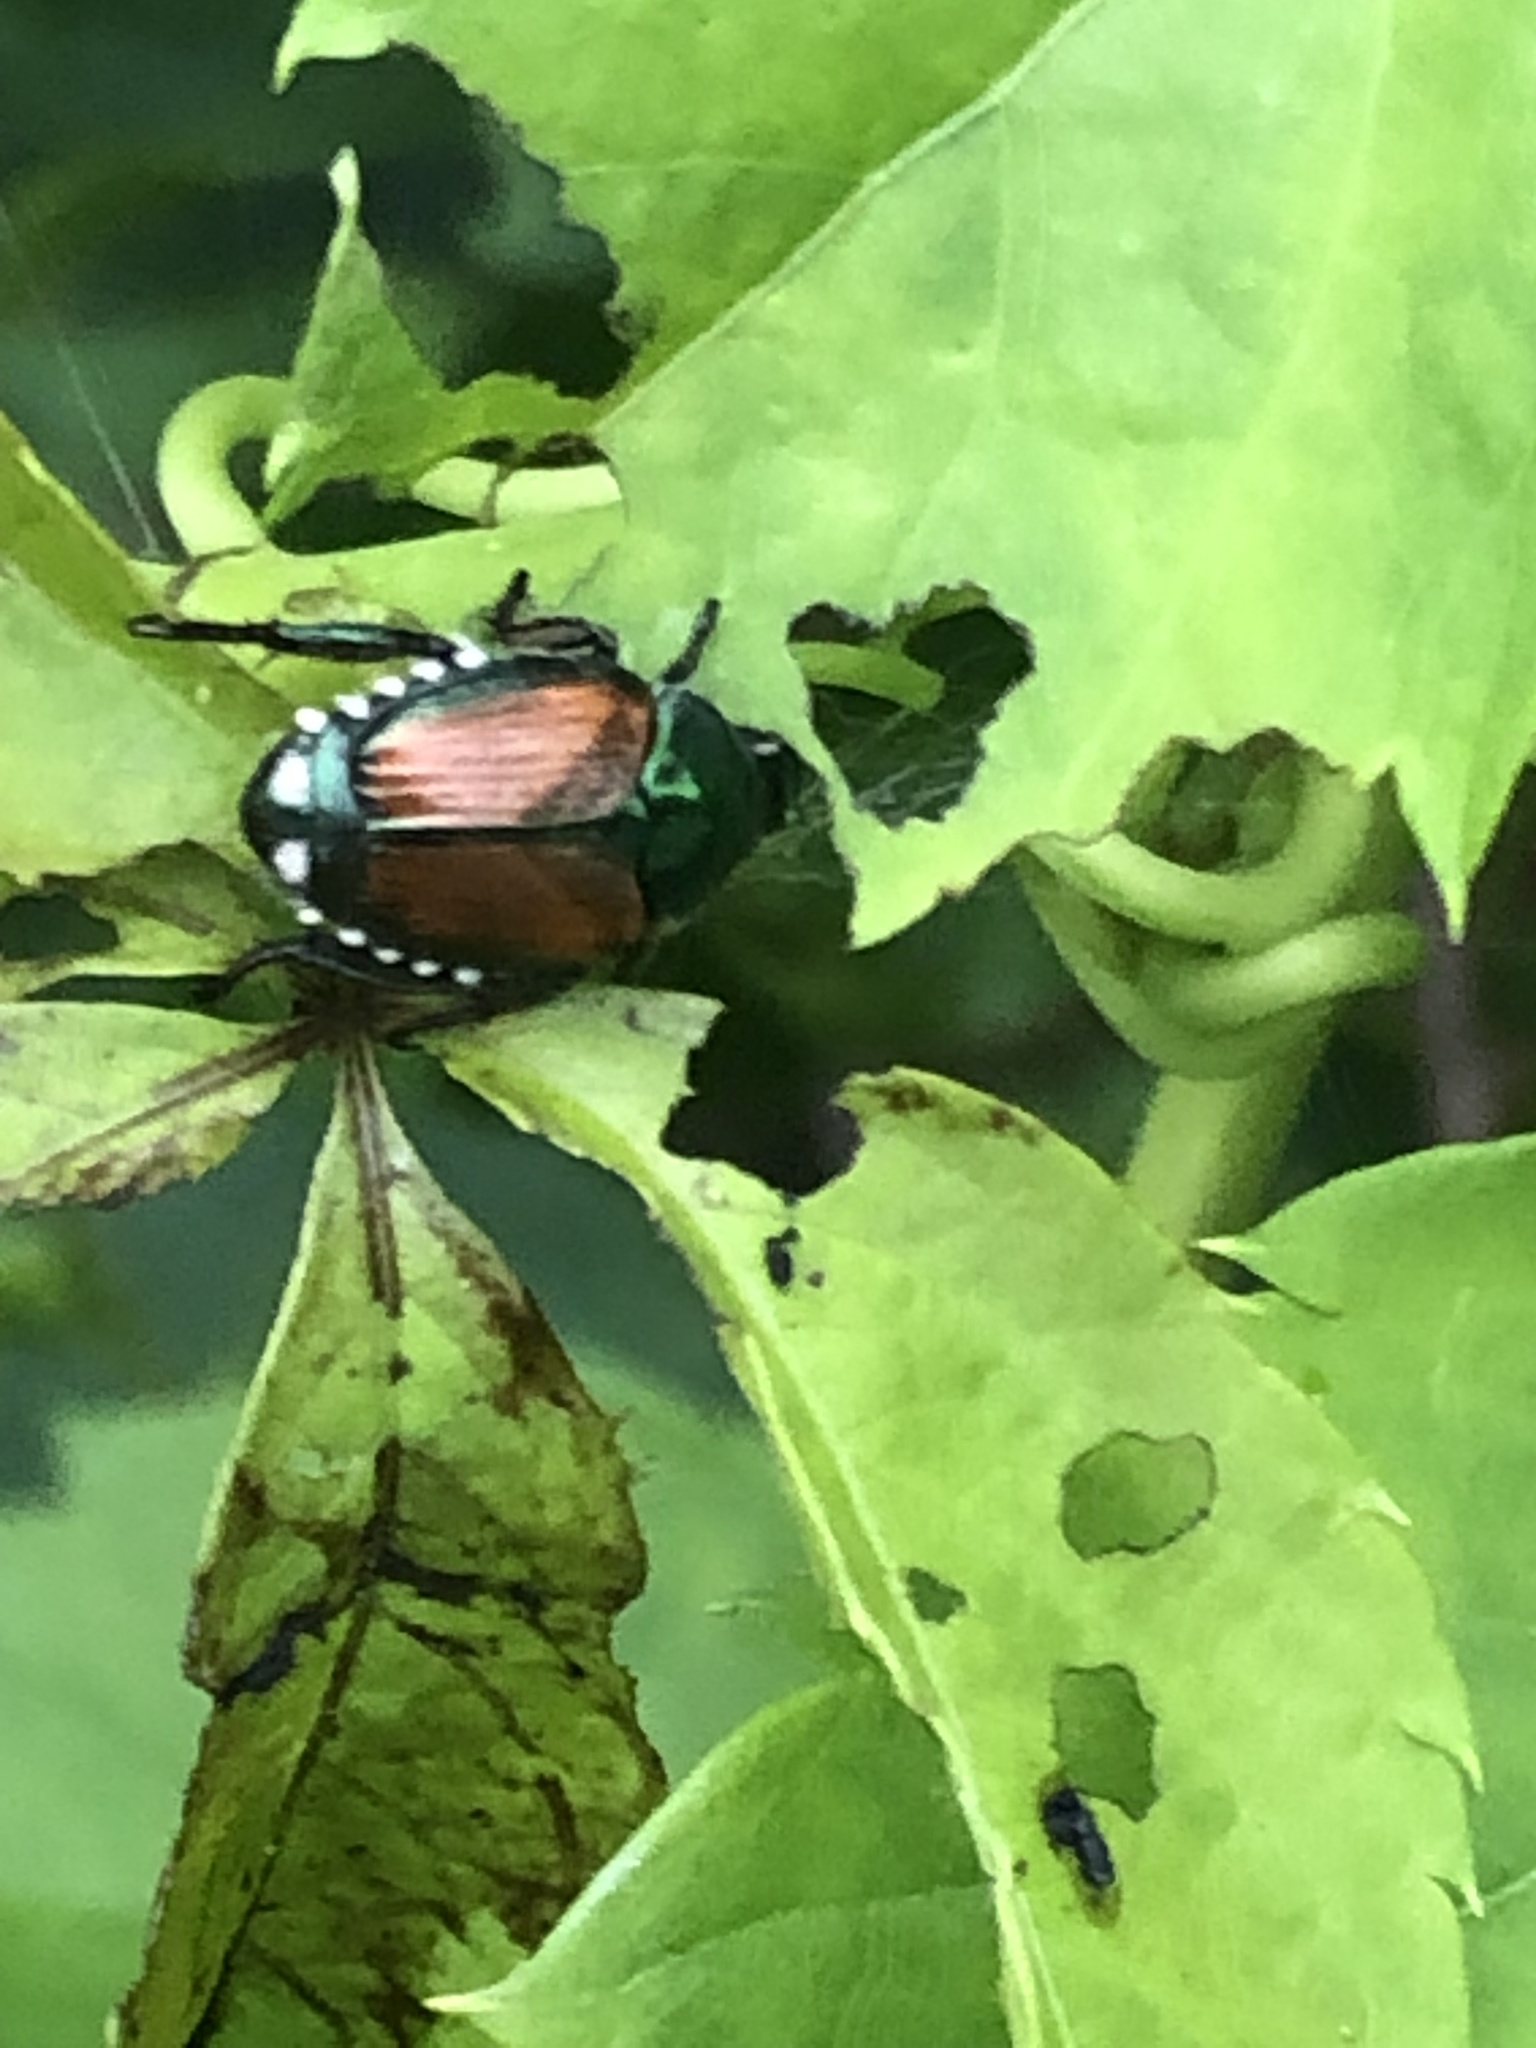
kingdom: Animalia
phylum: Arthropoda
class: Insecta
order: Coleoptera
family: Scarabaeidae
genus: Popillia
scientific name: Popillia japonica
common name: Japanese beetle
